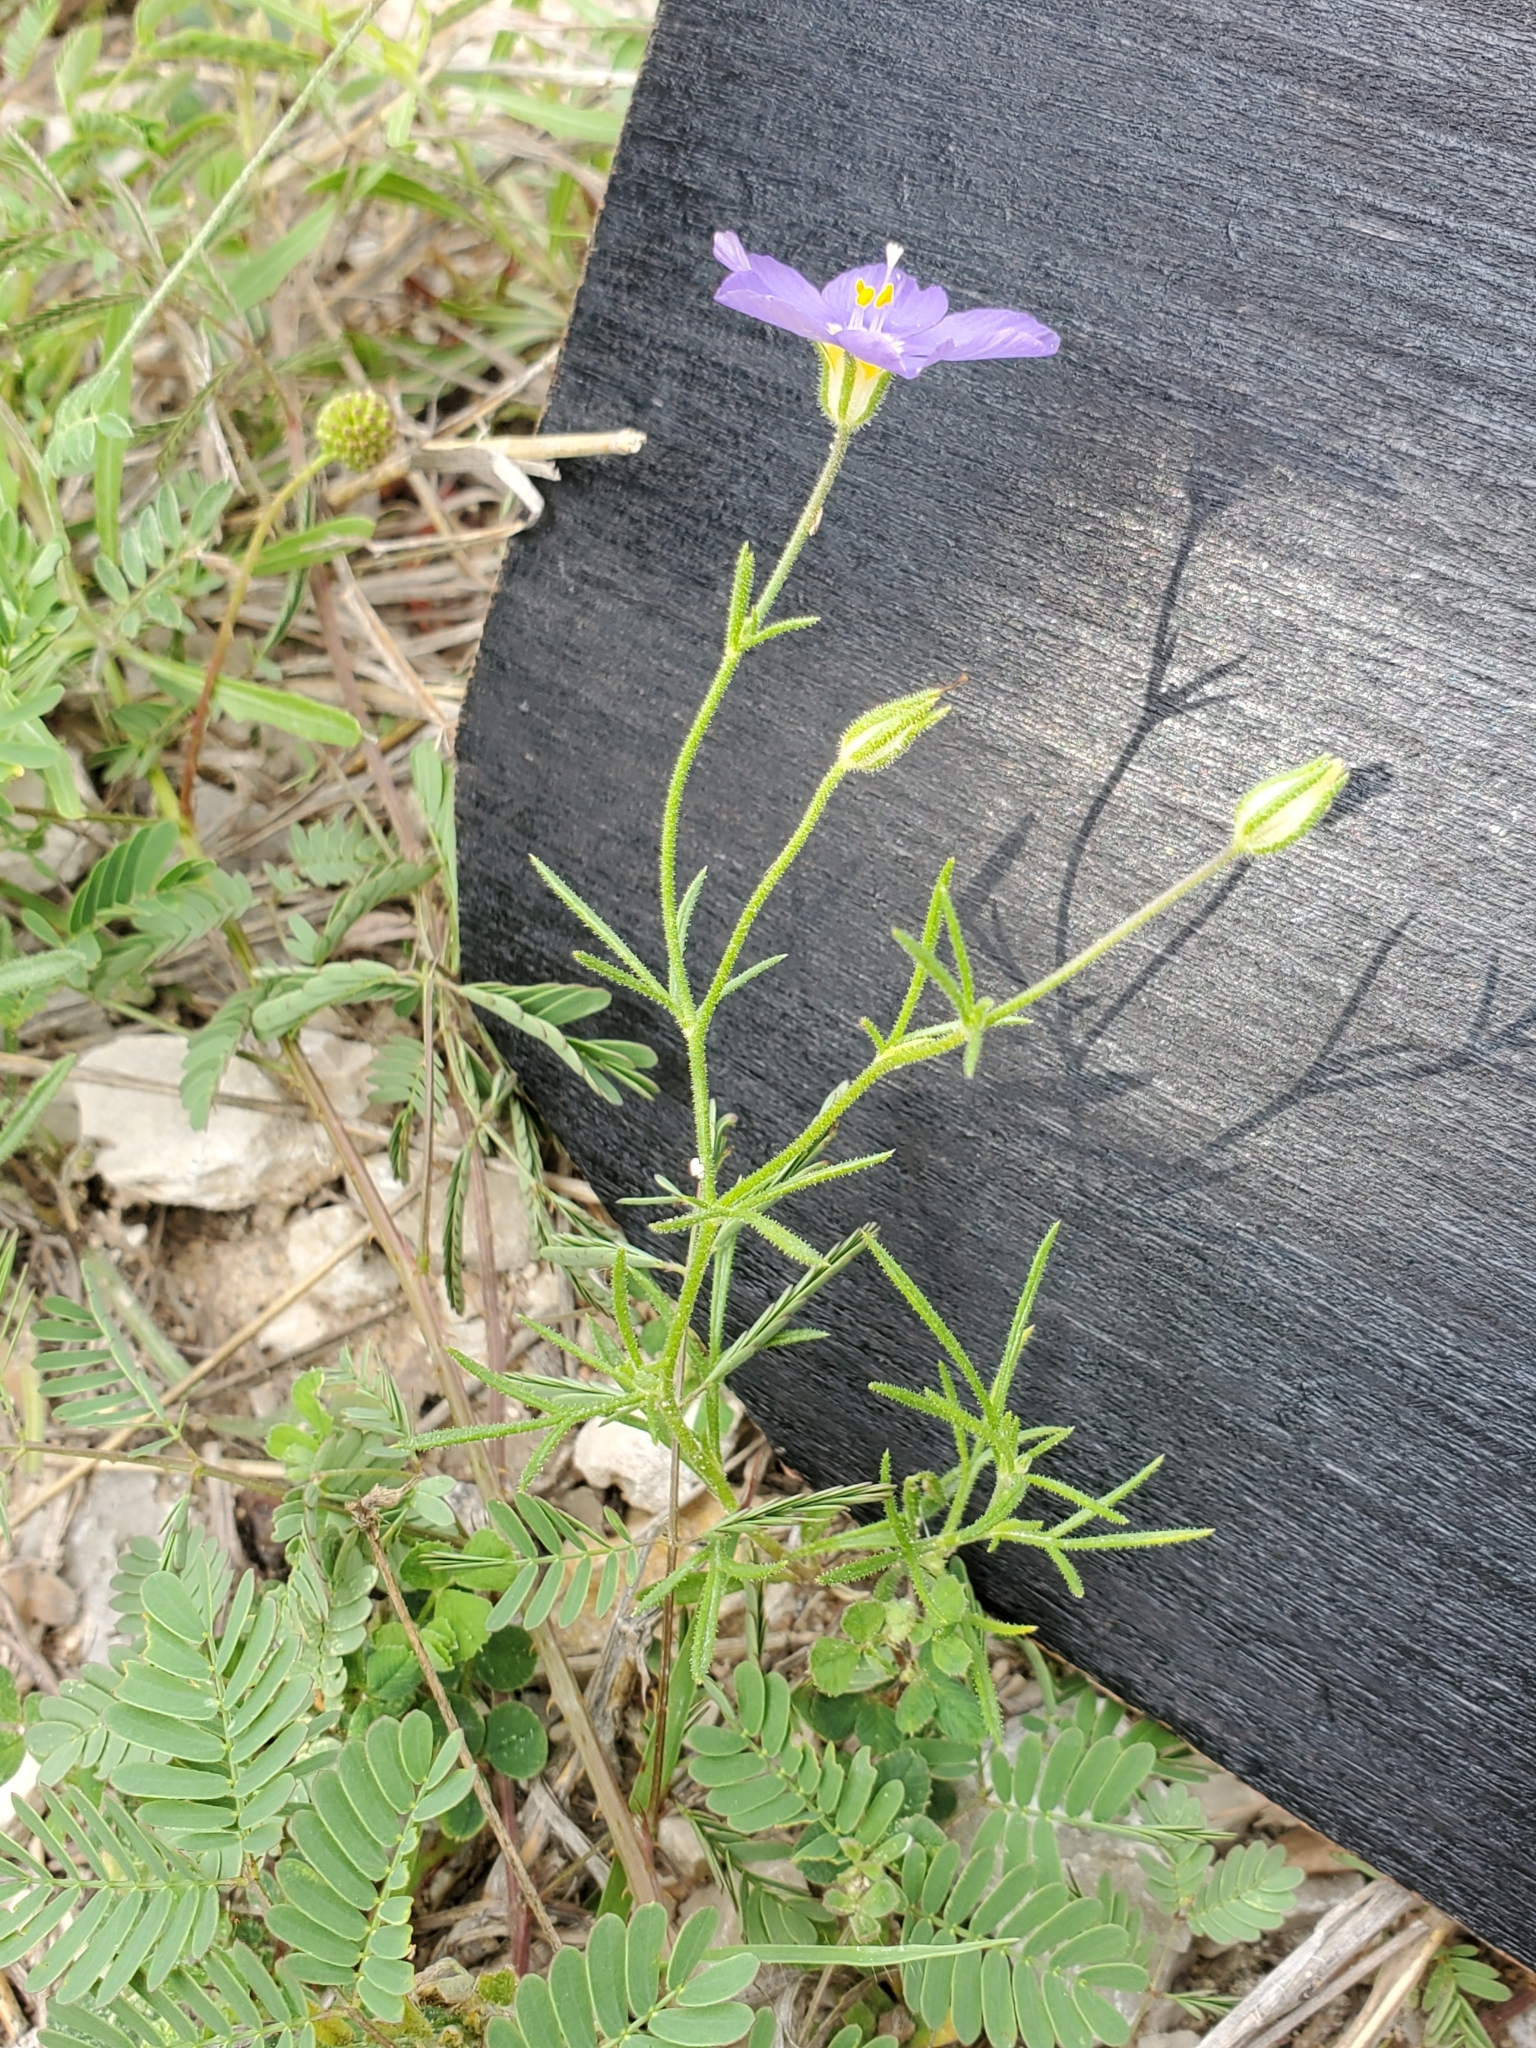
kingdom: Plantae
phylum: Tracheophyta
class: Magnoliopsida
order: Ericales
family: Polemoniaceae
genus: Giliastrum
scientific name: Giliastrum rigidulum
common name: Bluebowls
